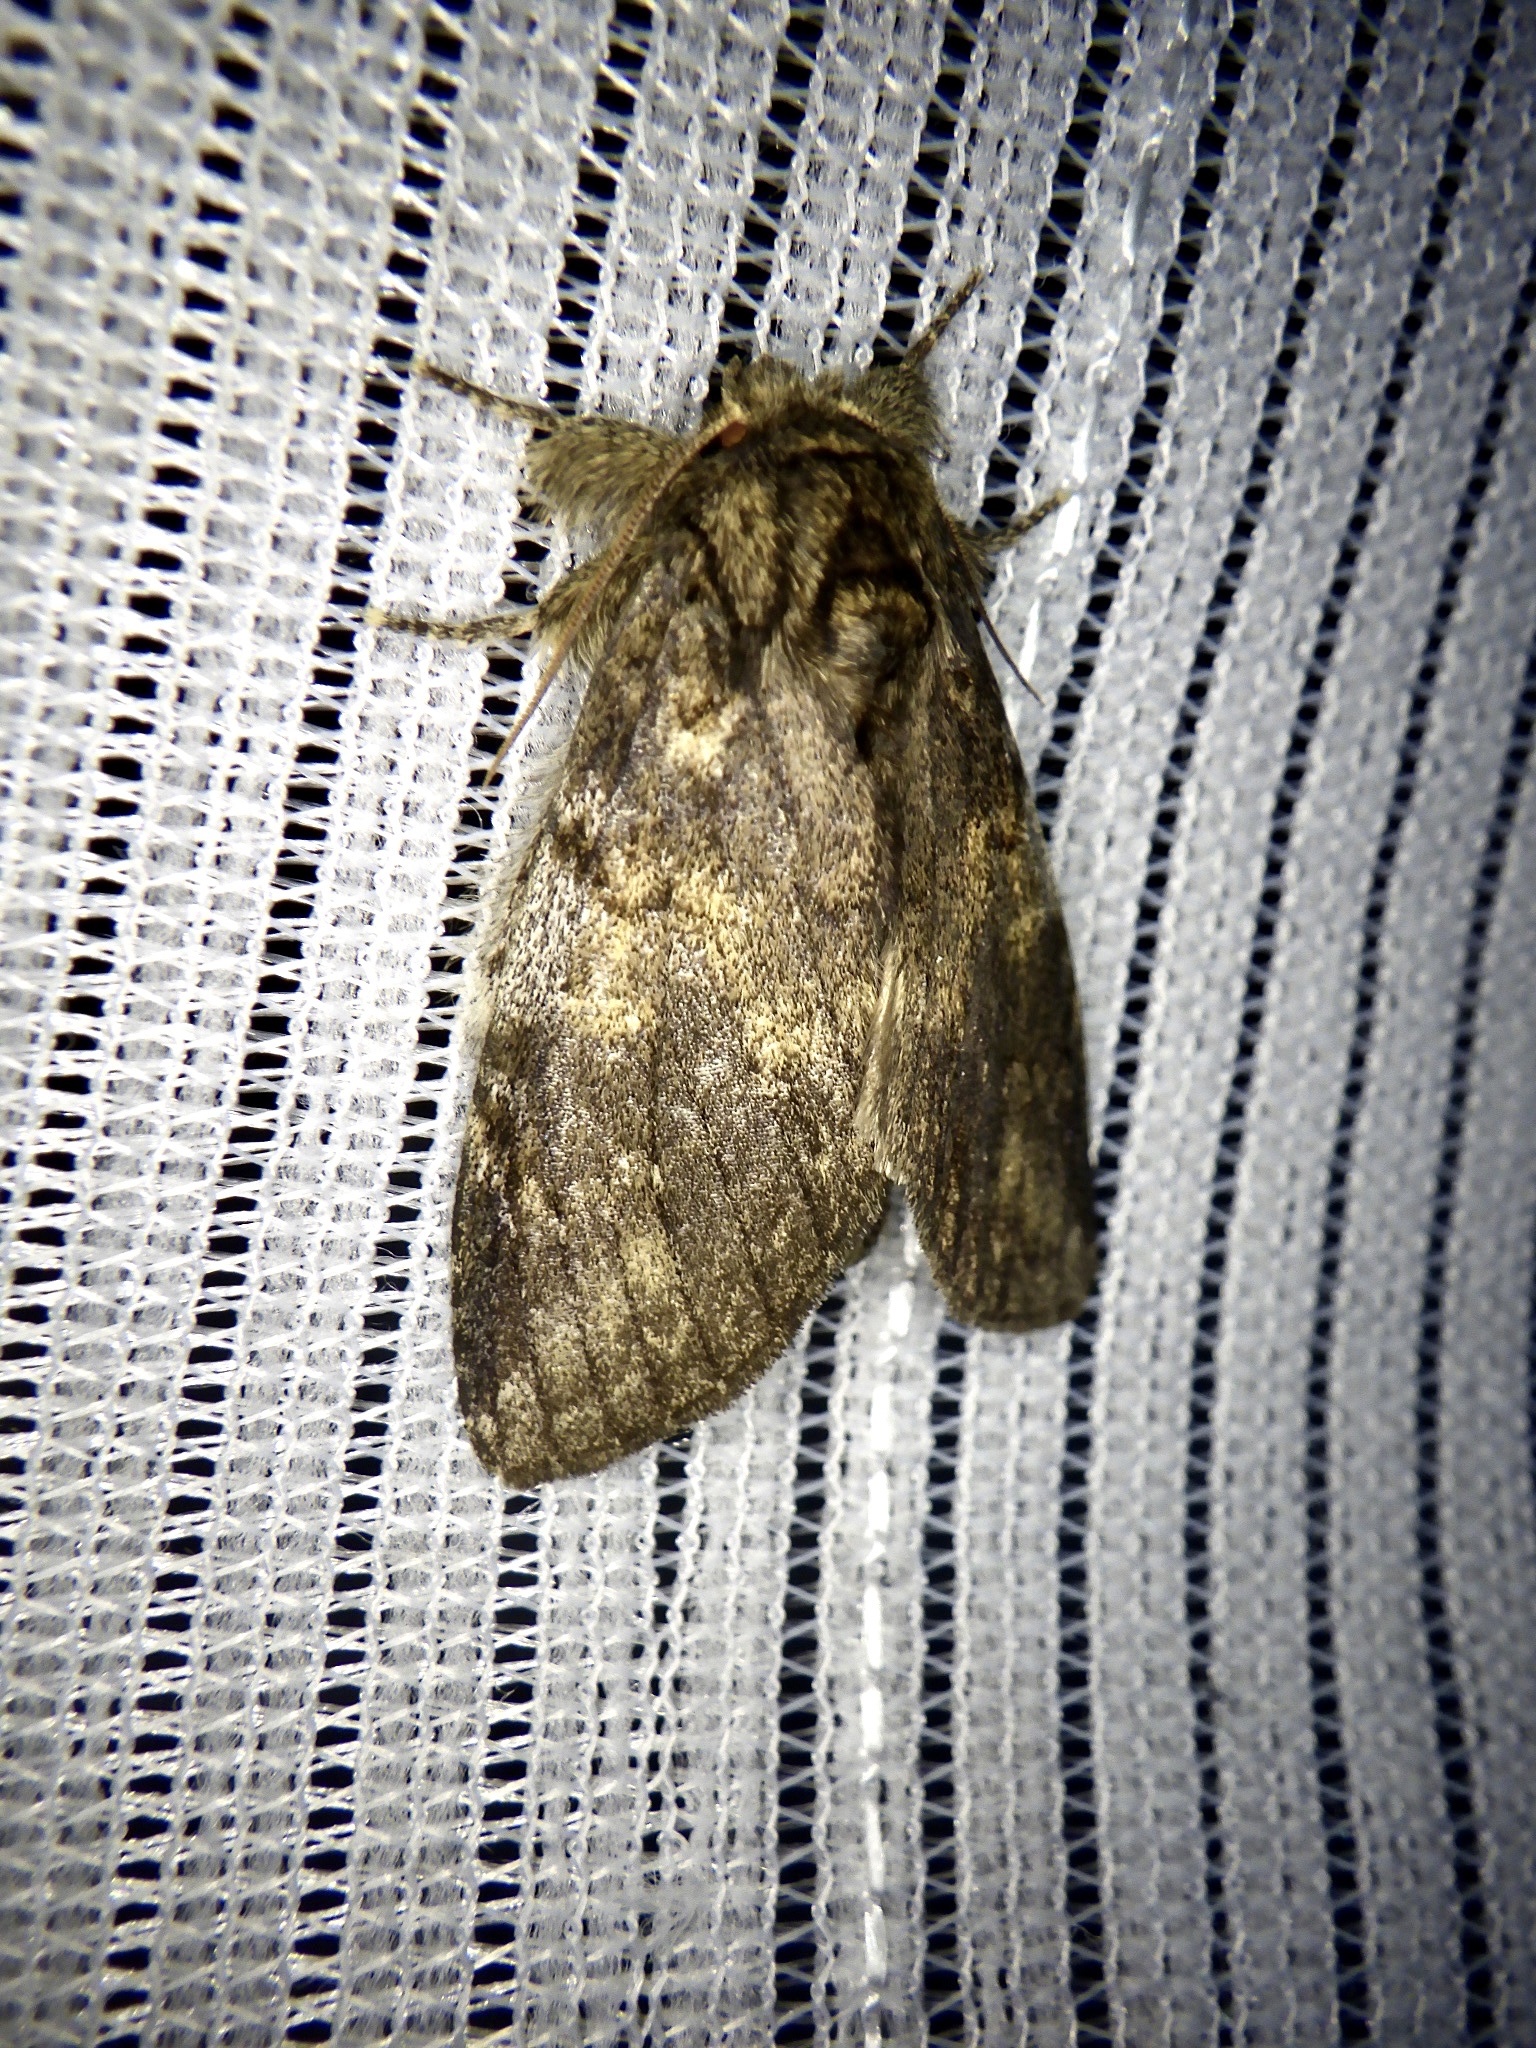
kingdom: Animalia
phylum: Arthropoda
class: Insecta
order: Lepidoptera
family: Notodontidae
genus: Peridea
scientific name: Peridea gigantea
